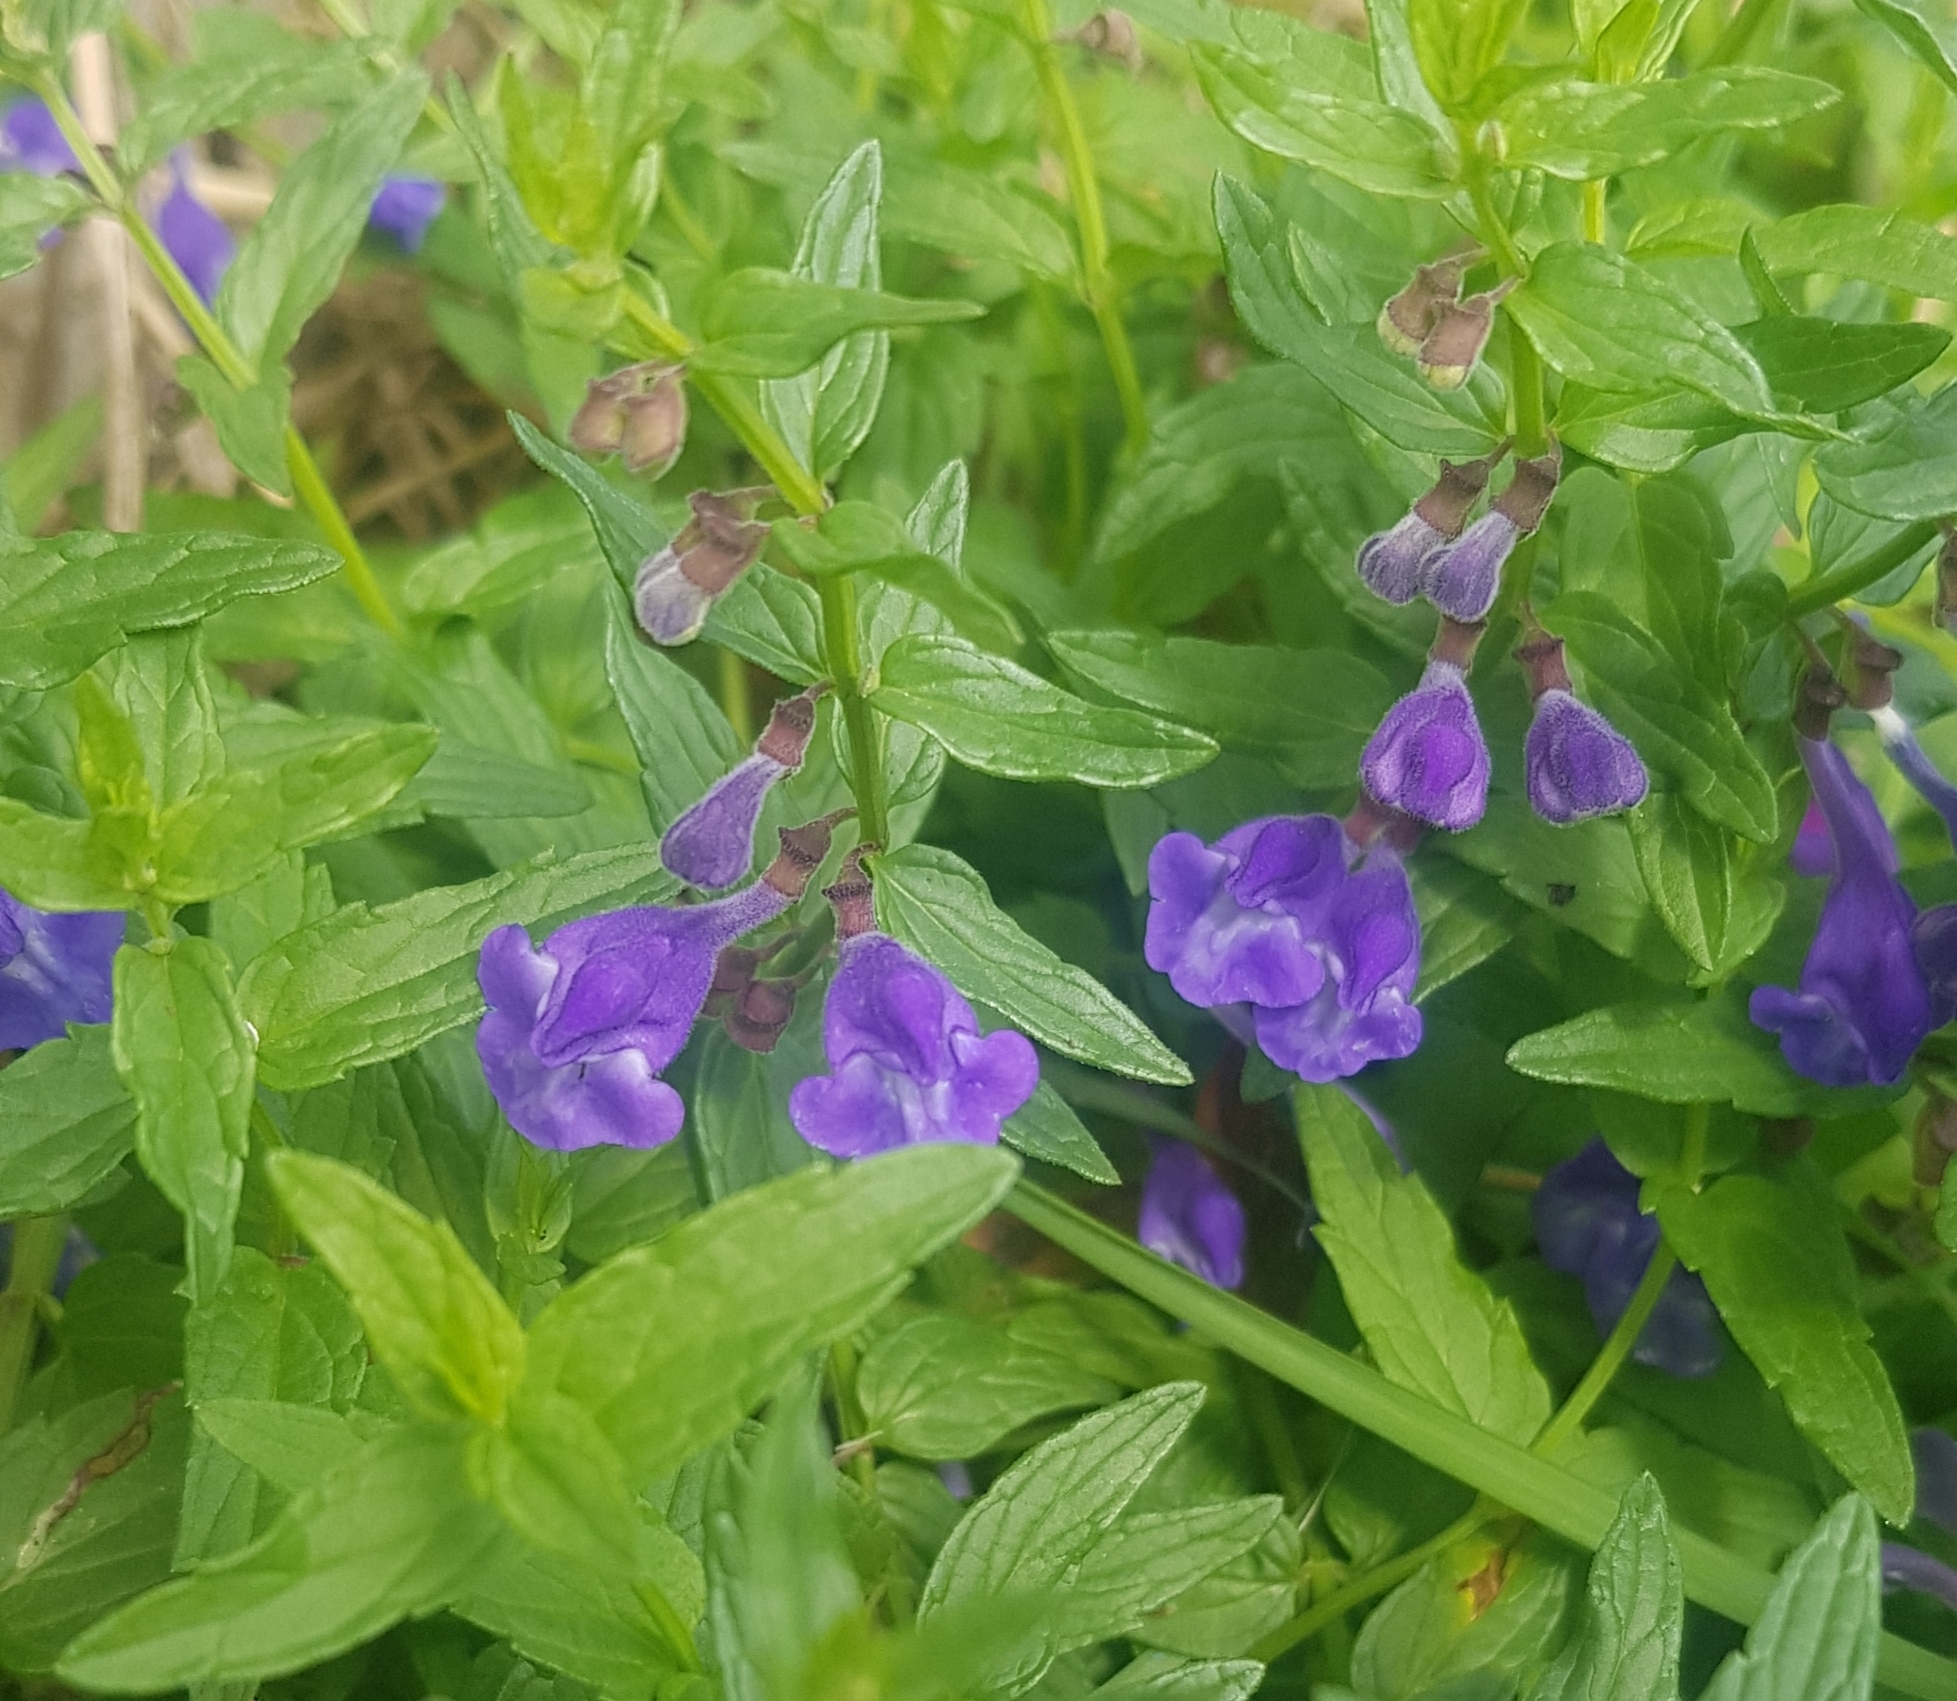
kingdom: Plantae
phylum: Tracheophyta
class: Magnoliopsida
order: Lamiales
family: Lamiaceae
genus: Scutellaria
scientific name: Scutellaria scordiifolia
